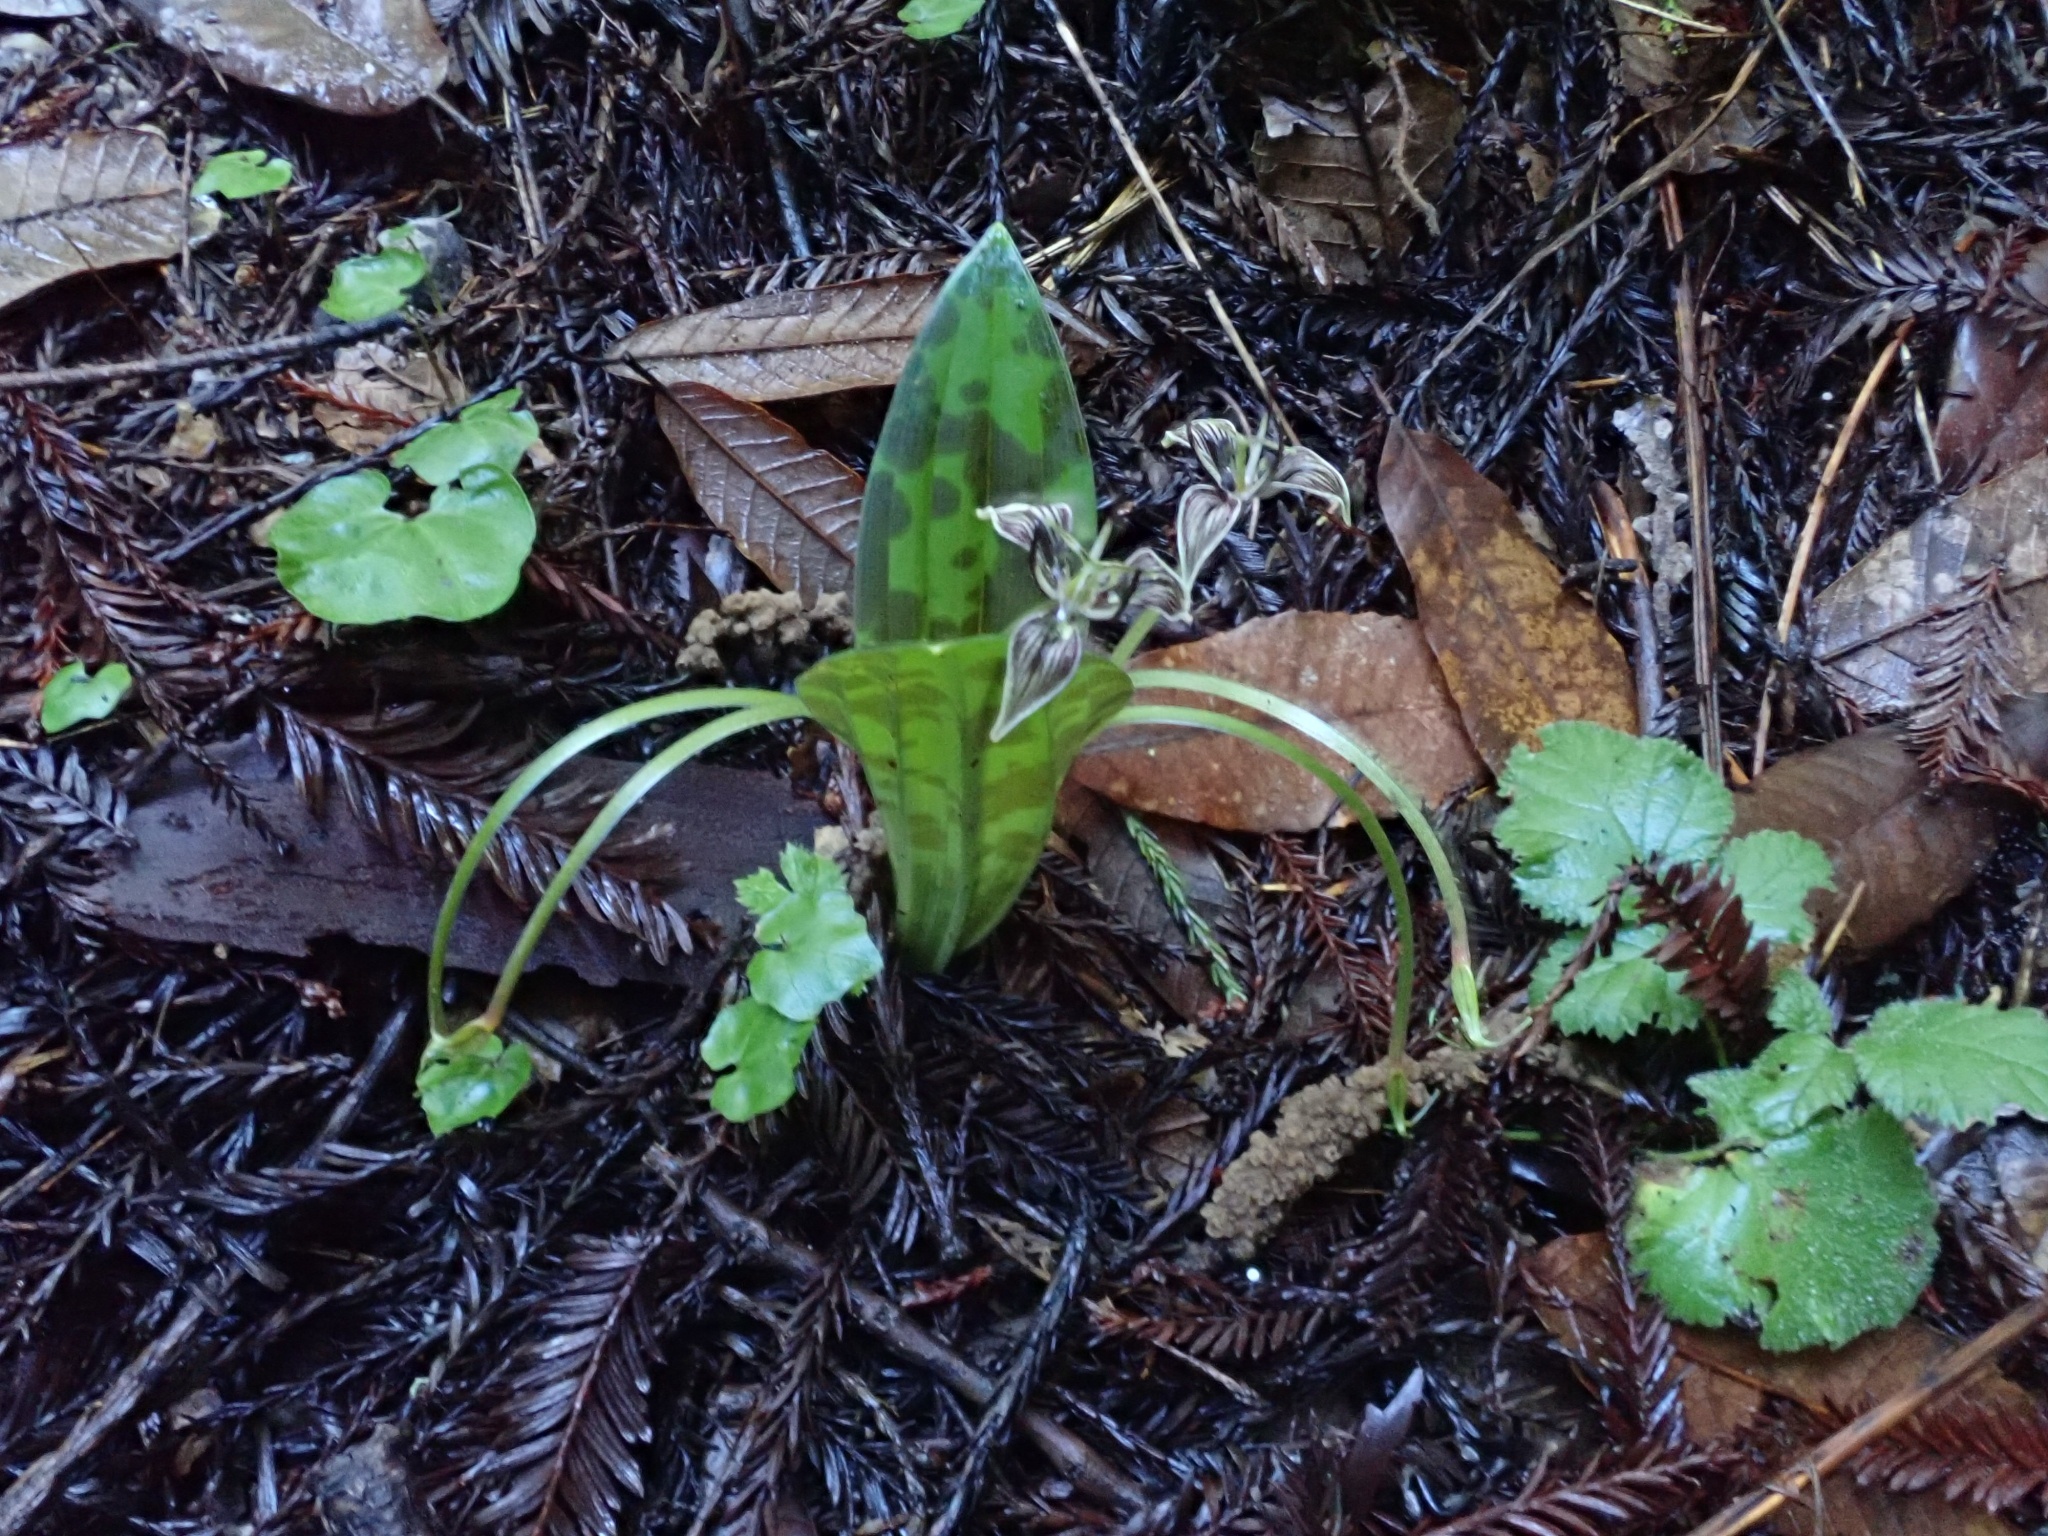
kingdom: Plantae
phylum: Tracheophyta
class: Liliopsida
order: Liliales
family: Liliaceae
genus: Scoliopus
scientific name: Scoliopus bigelovii
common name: Foetid adder's-tongue
